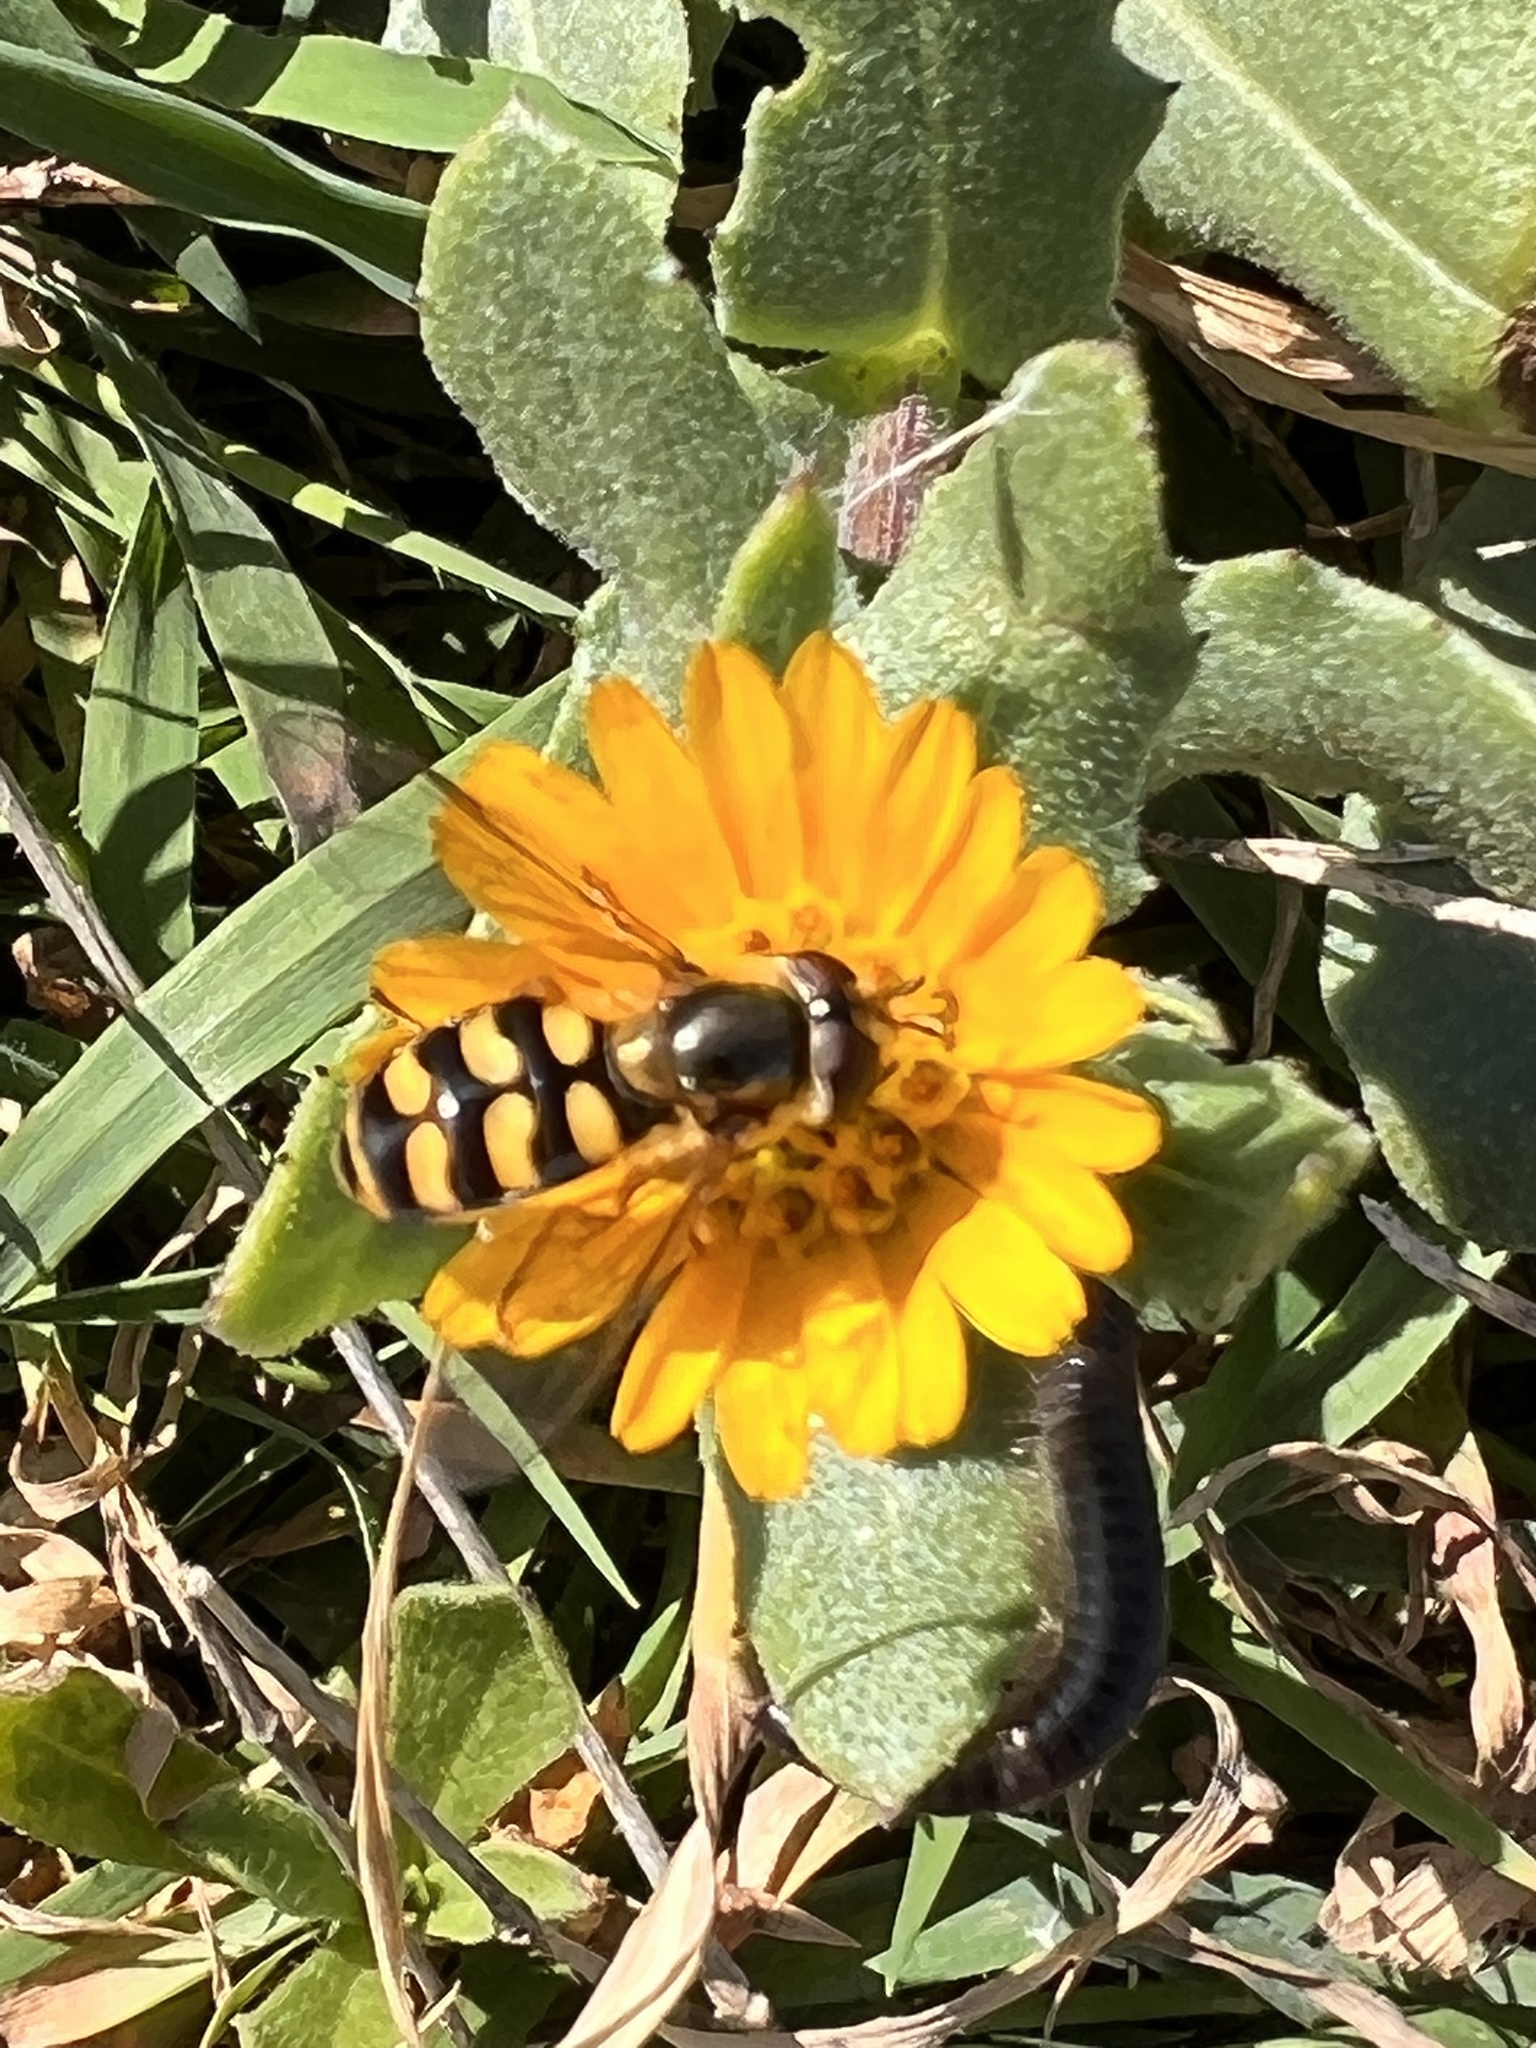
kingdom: Animalia
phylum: Arthropoda
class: Insecta
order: Diptera
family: Syrphidae
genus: Eupeodes
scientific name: Eupeodes luniger
